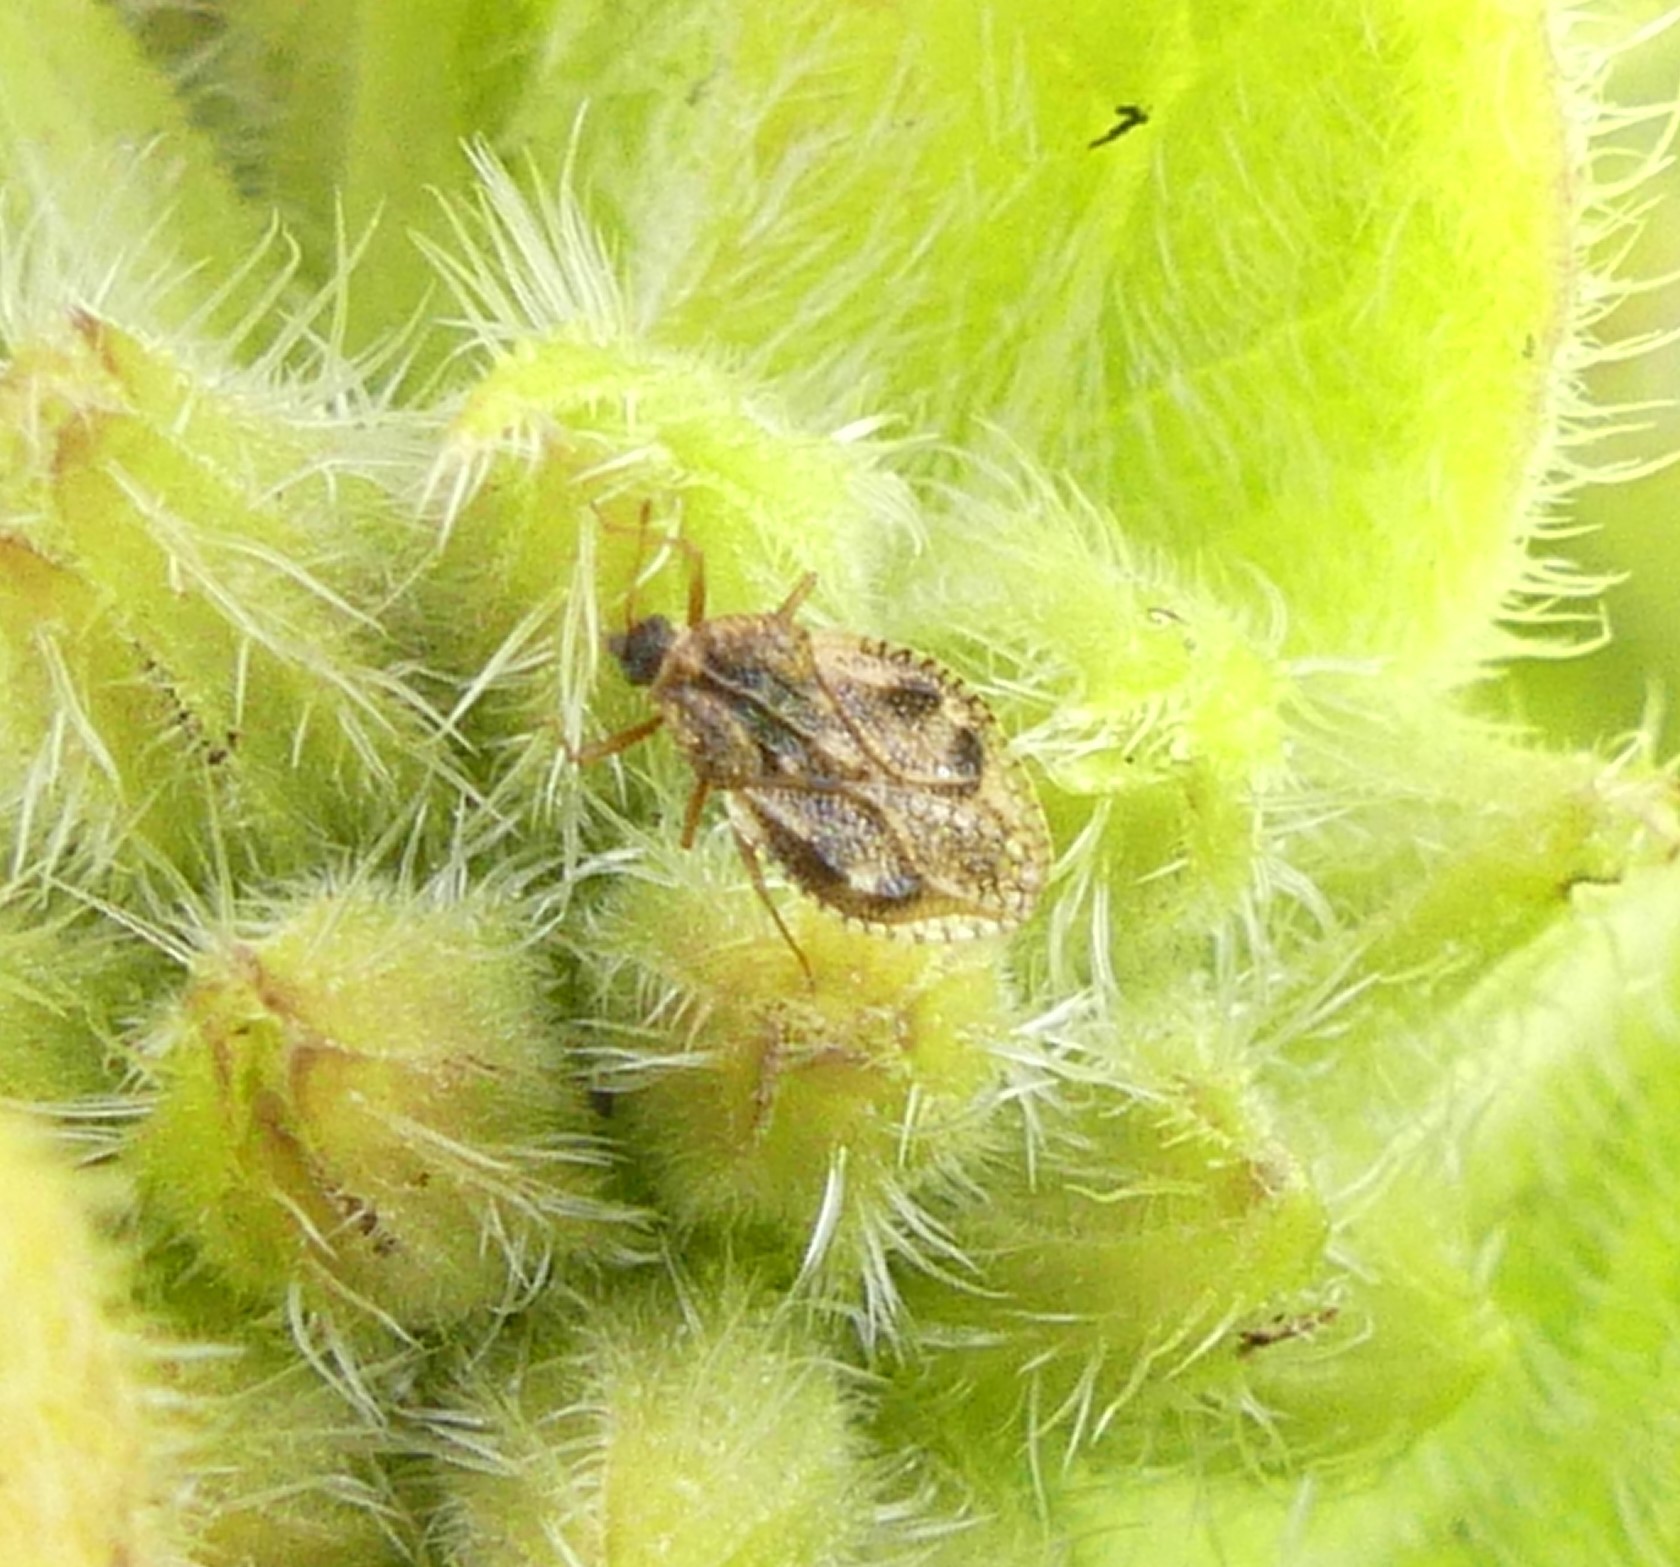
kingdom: Animalia
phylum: Arthropoda
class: Insecta
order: Hemiptera
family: Tingidae
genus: Dictyla
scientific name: Dictyla humuli
